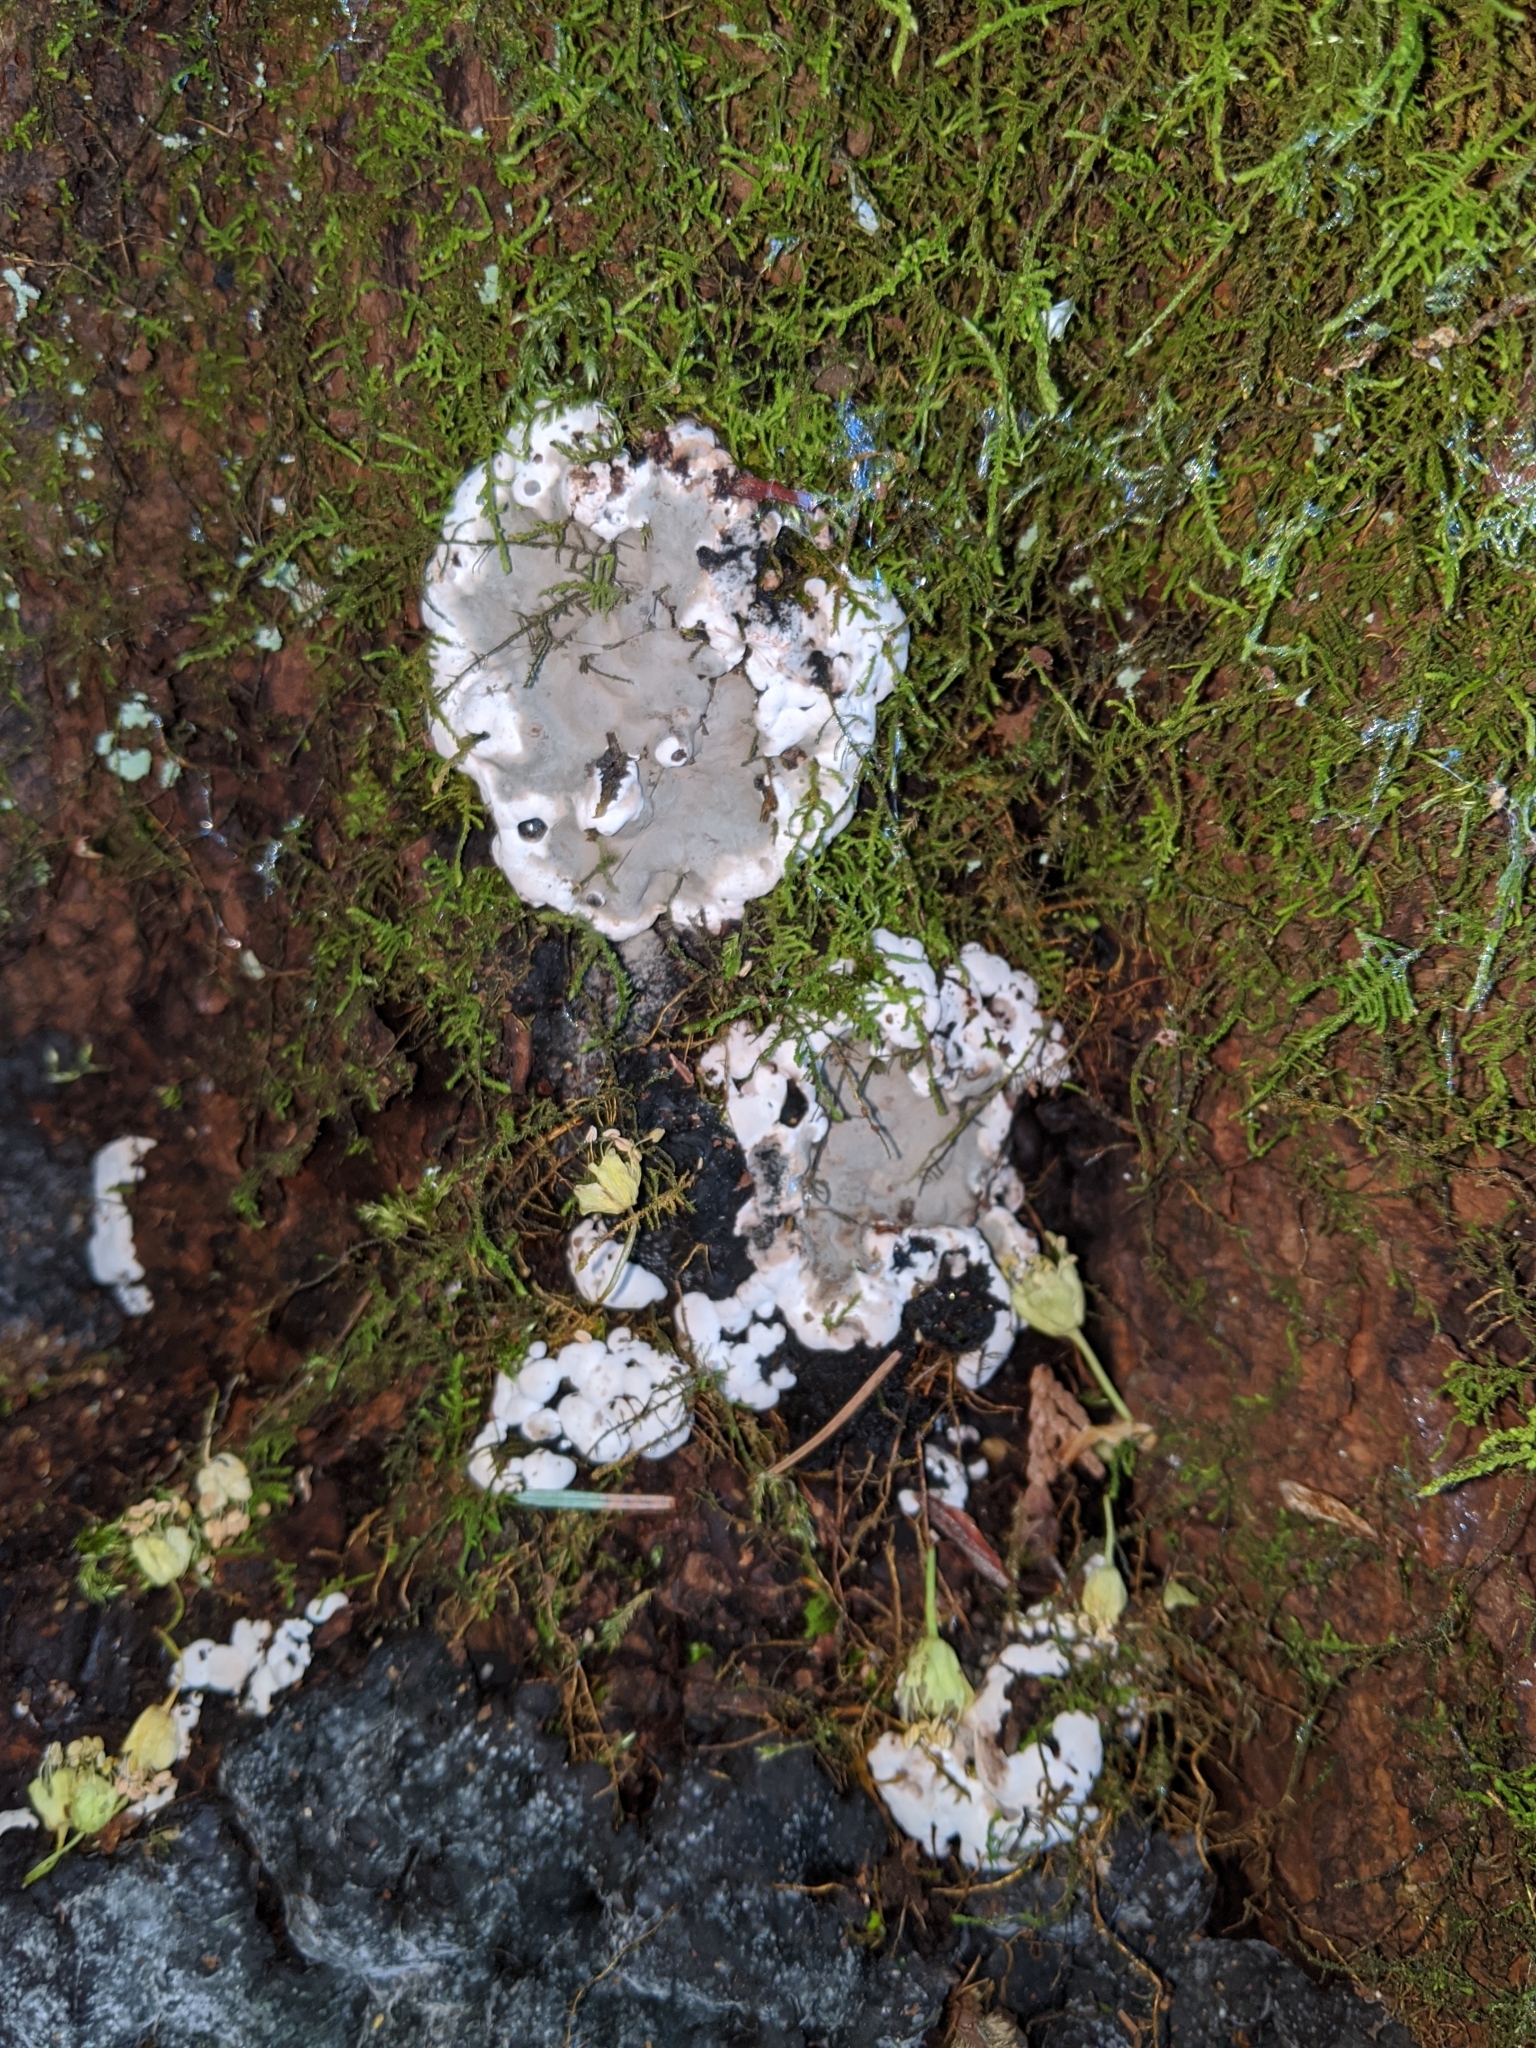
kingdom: Fungi
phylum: Ascomycota
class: Sordariomycetes
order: Xylariales
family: Xylariaceae
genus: Kretzschmaria
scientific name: Kretzschmaria deusta
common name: Brittle cinder
